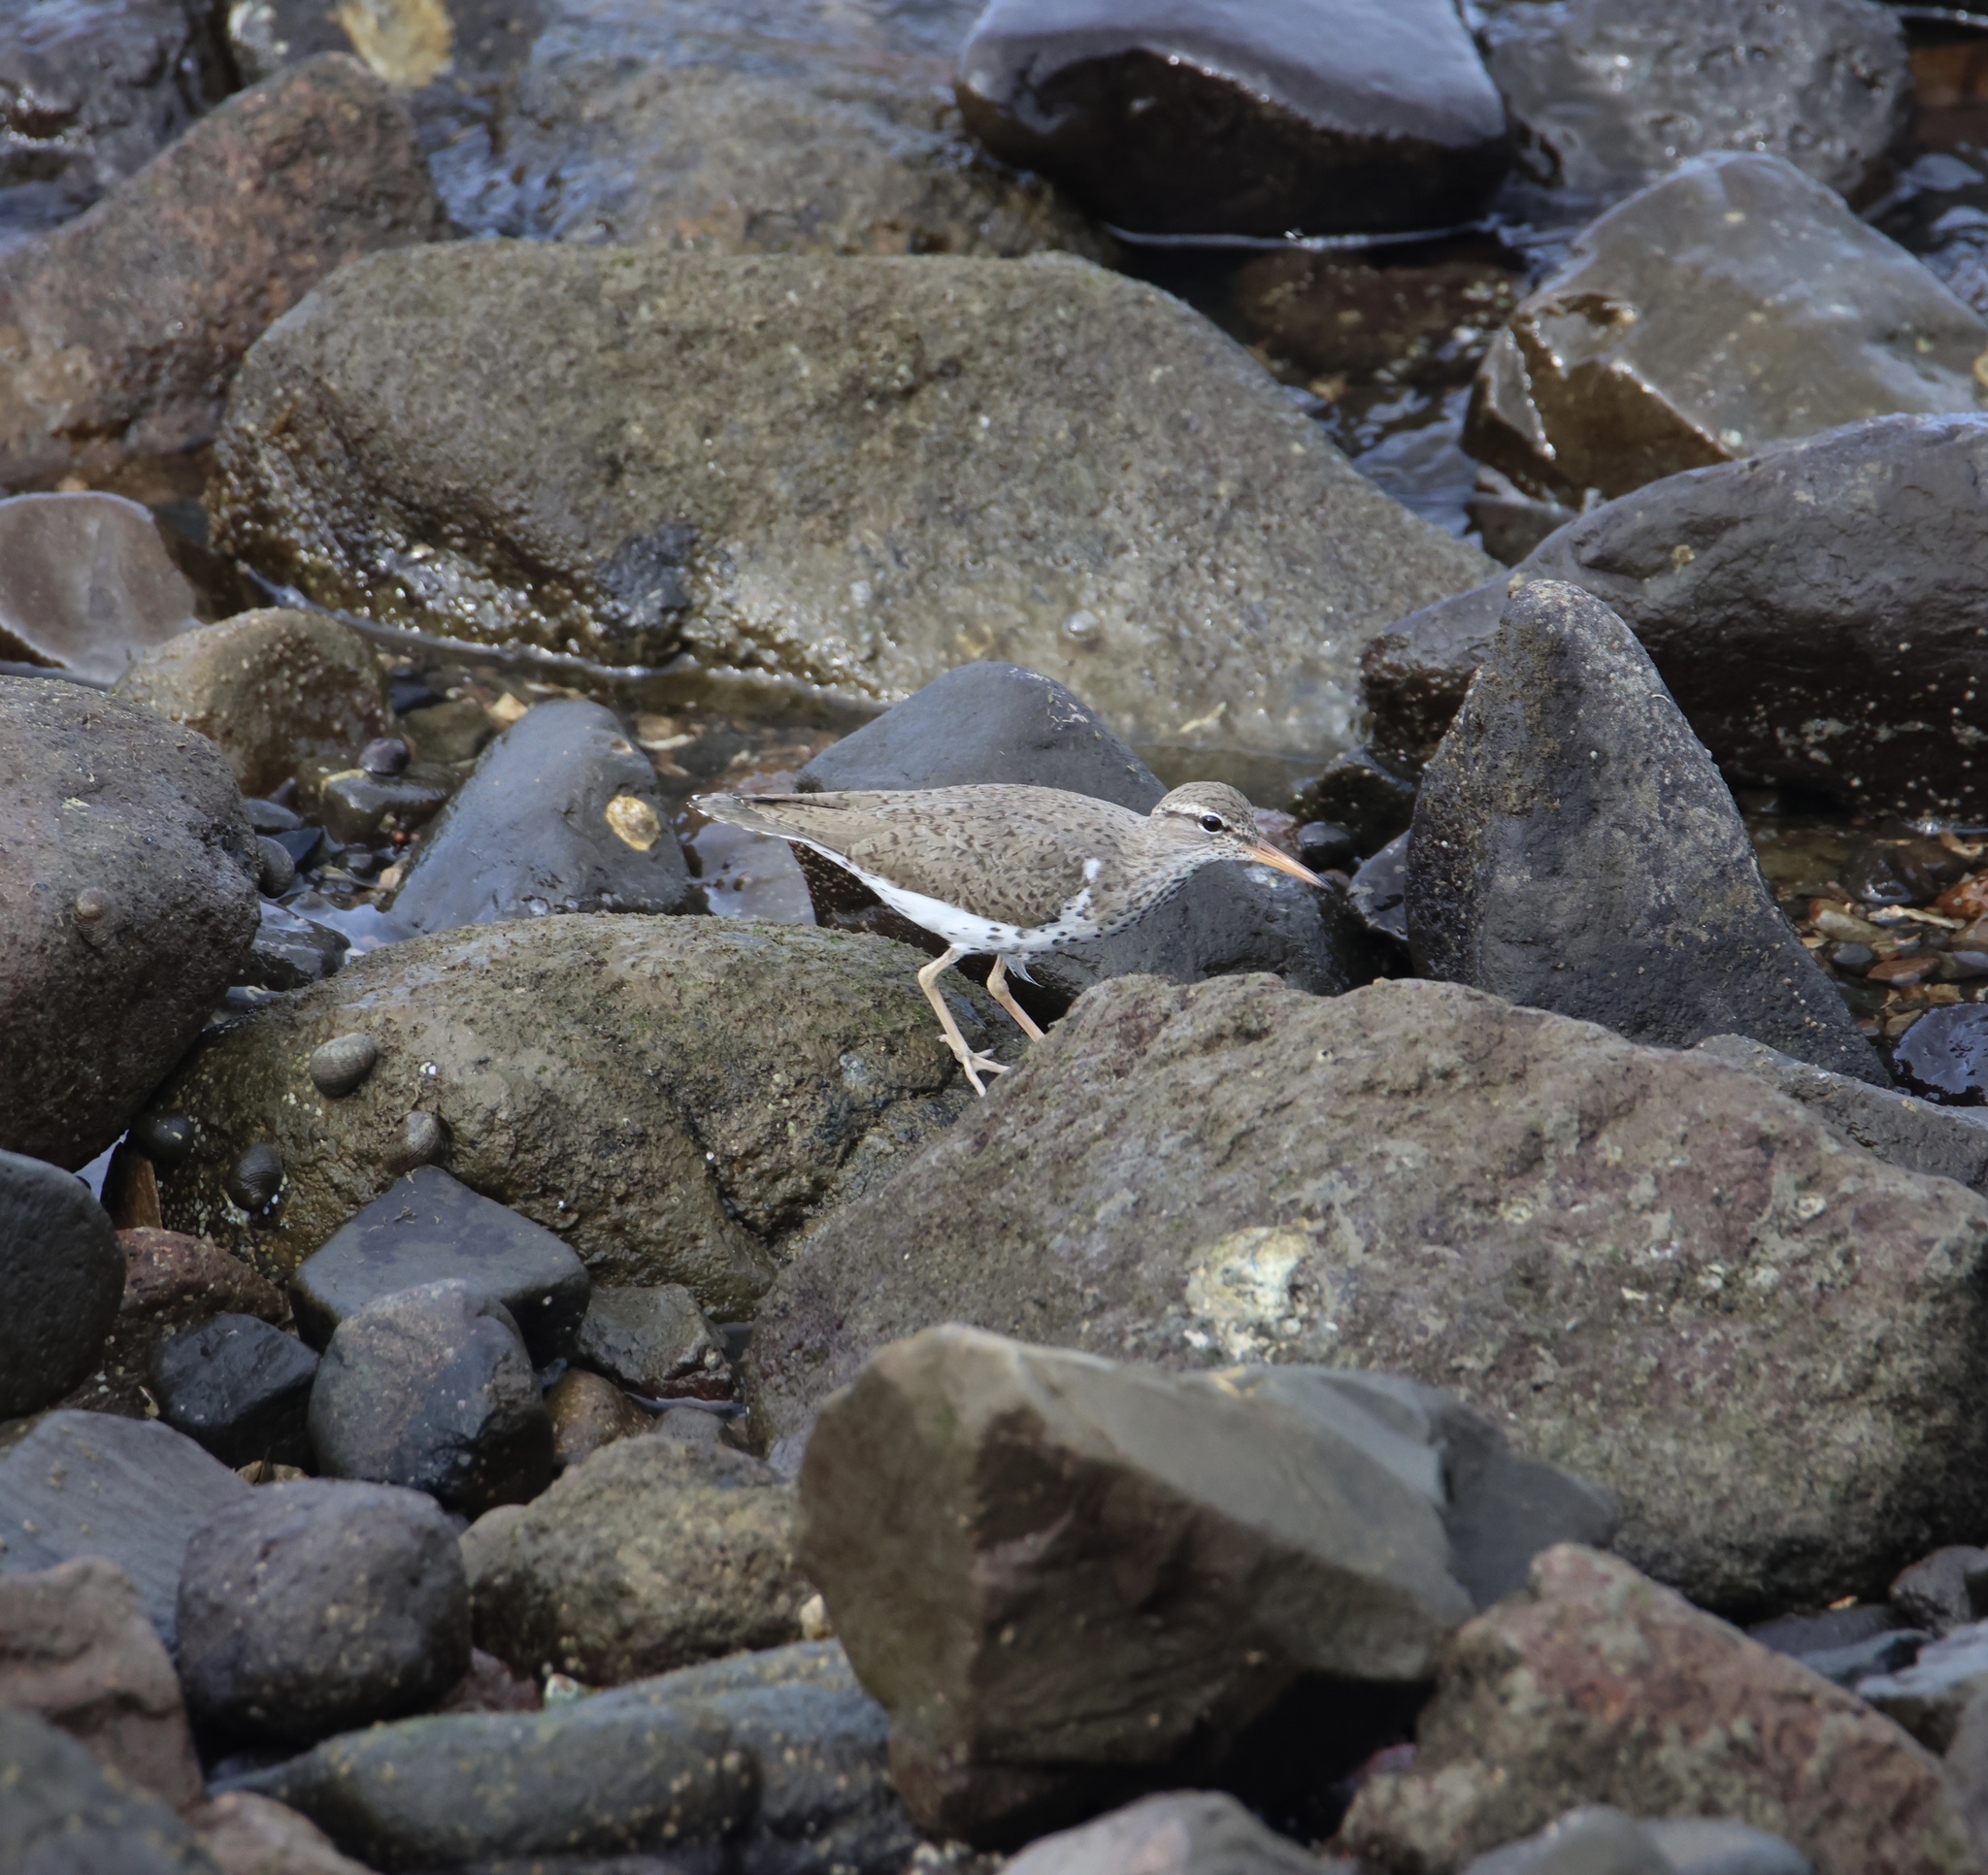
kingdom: Animalia
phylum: Chordata
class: Aves
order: Charadriiformes
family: Scolopacidae
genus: Actitis
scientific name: Actitis macularius
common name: Spotted sandpiper
